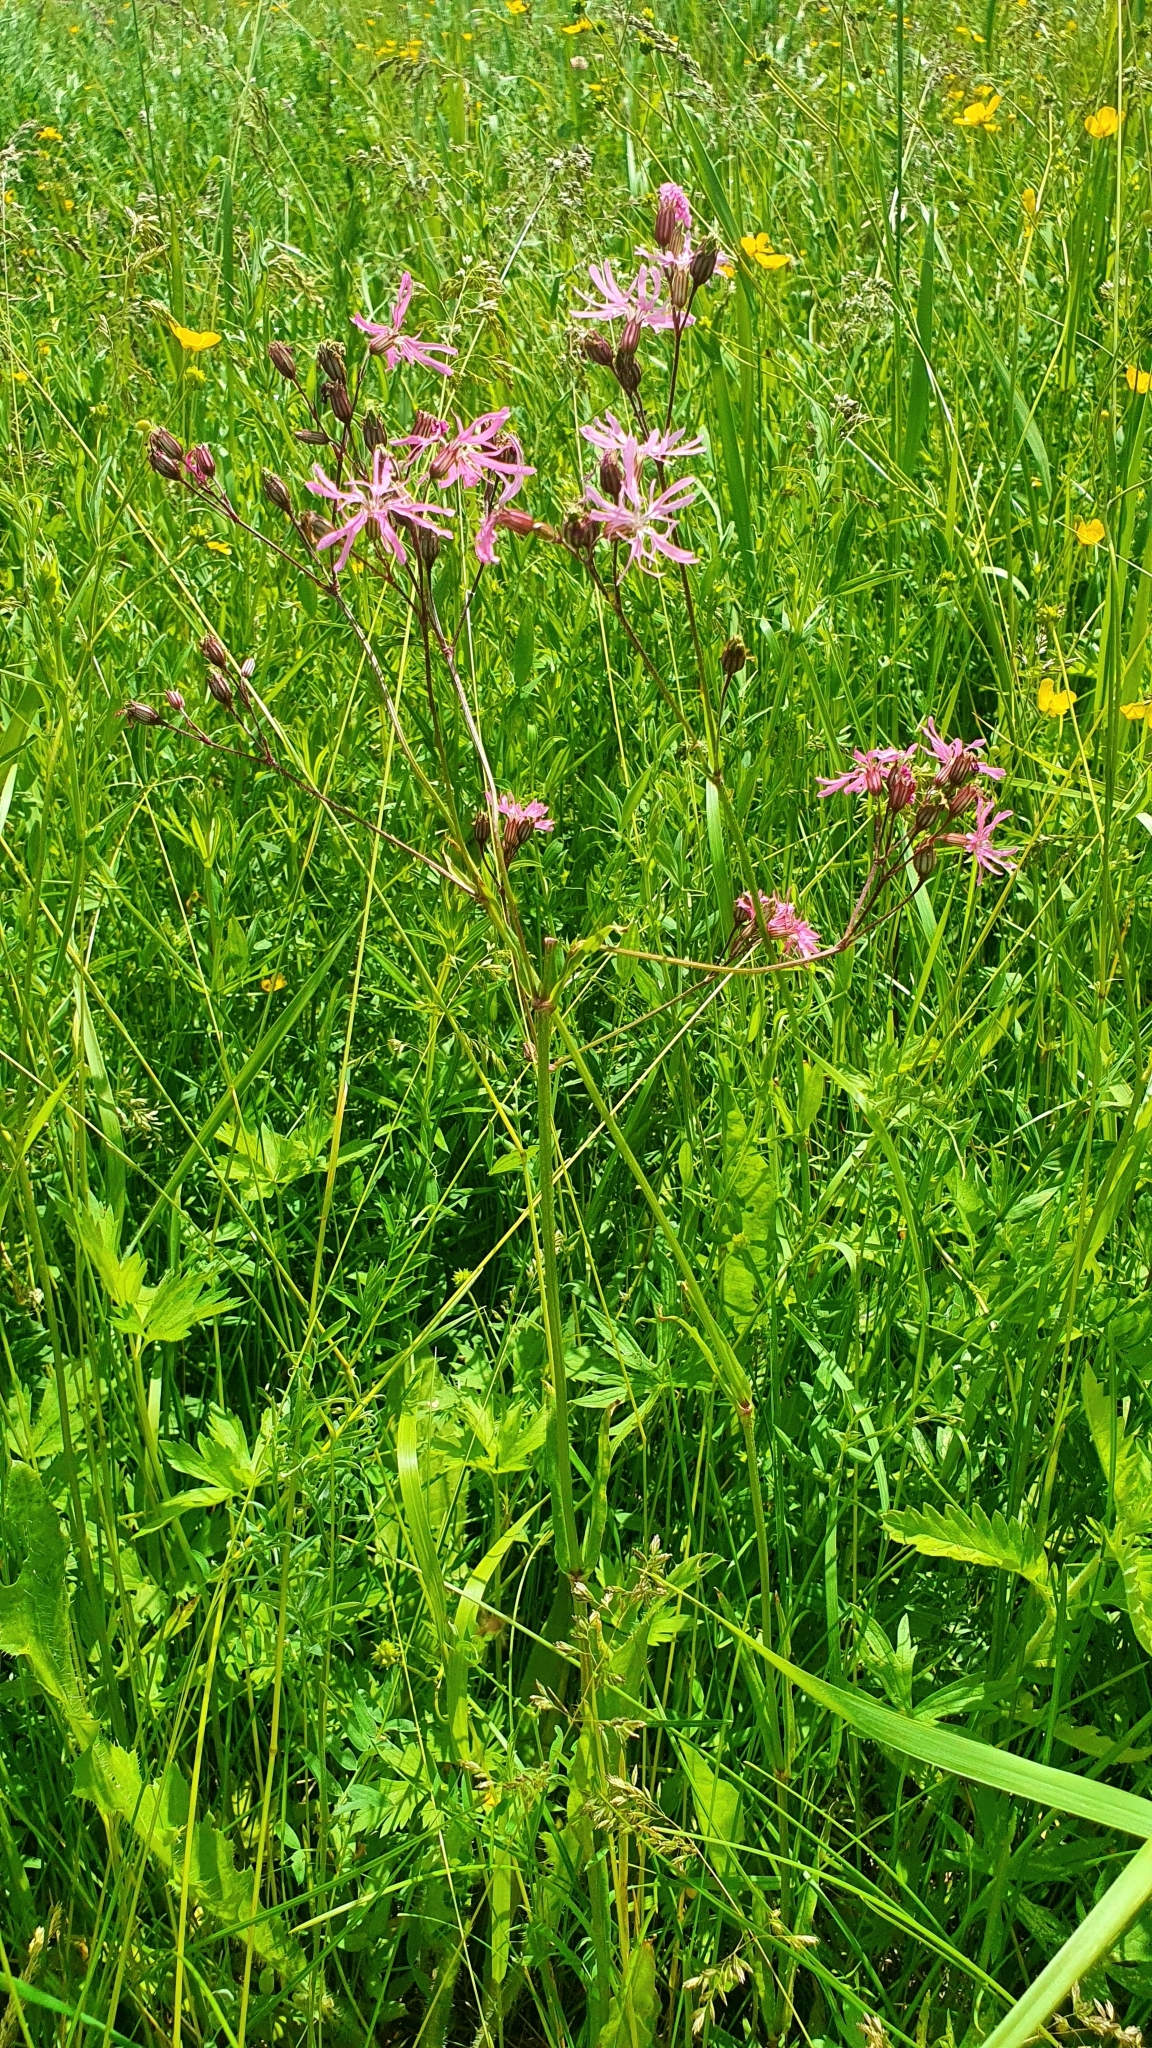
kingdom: Plantae
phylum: Tracheophyta
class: Magnoliopsida
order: Caryophyllales
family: Caryophyllaceae
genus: Silene
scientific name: Silene flos-cuculi
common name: Ragged-robin
